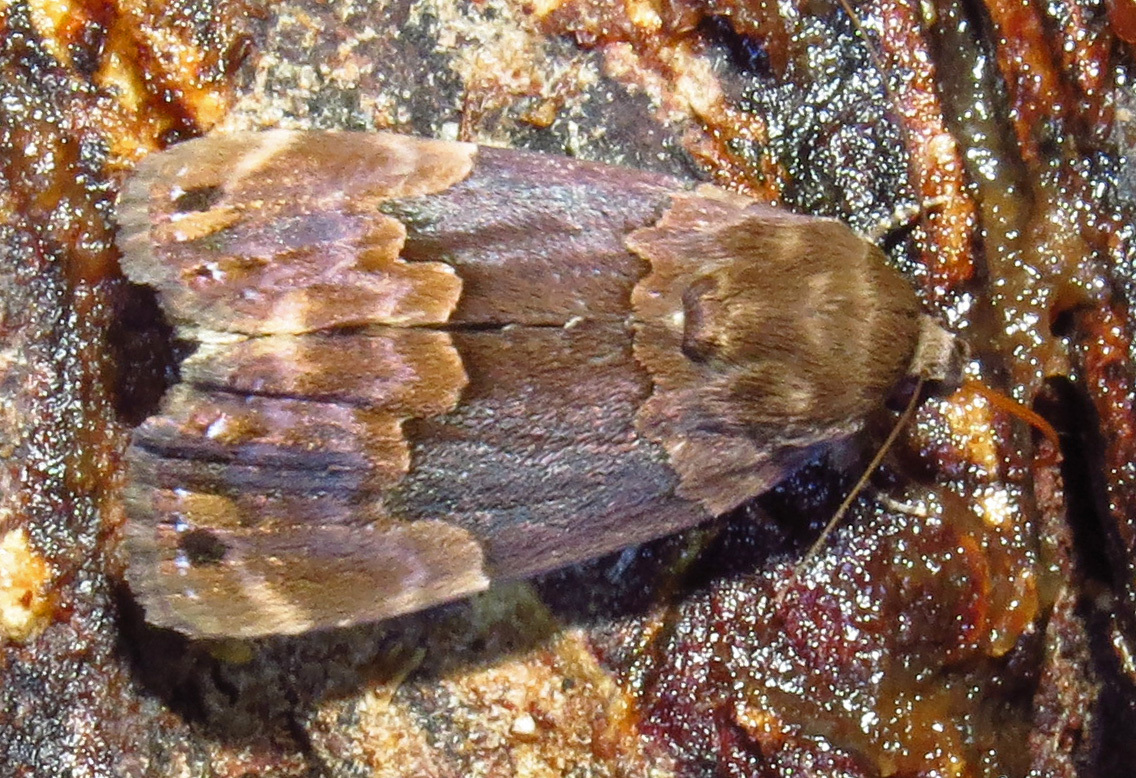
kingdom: Animalia
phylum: Arthropoda
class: Insecta
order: Lepidoptera
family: Erebidae
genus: Dinumma
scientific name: Dinumma deponens
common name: Purplish moth
